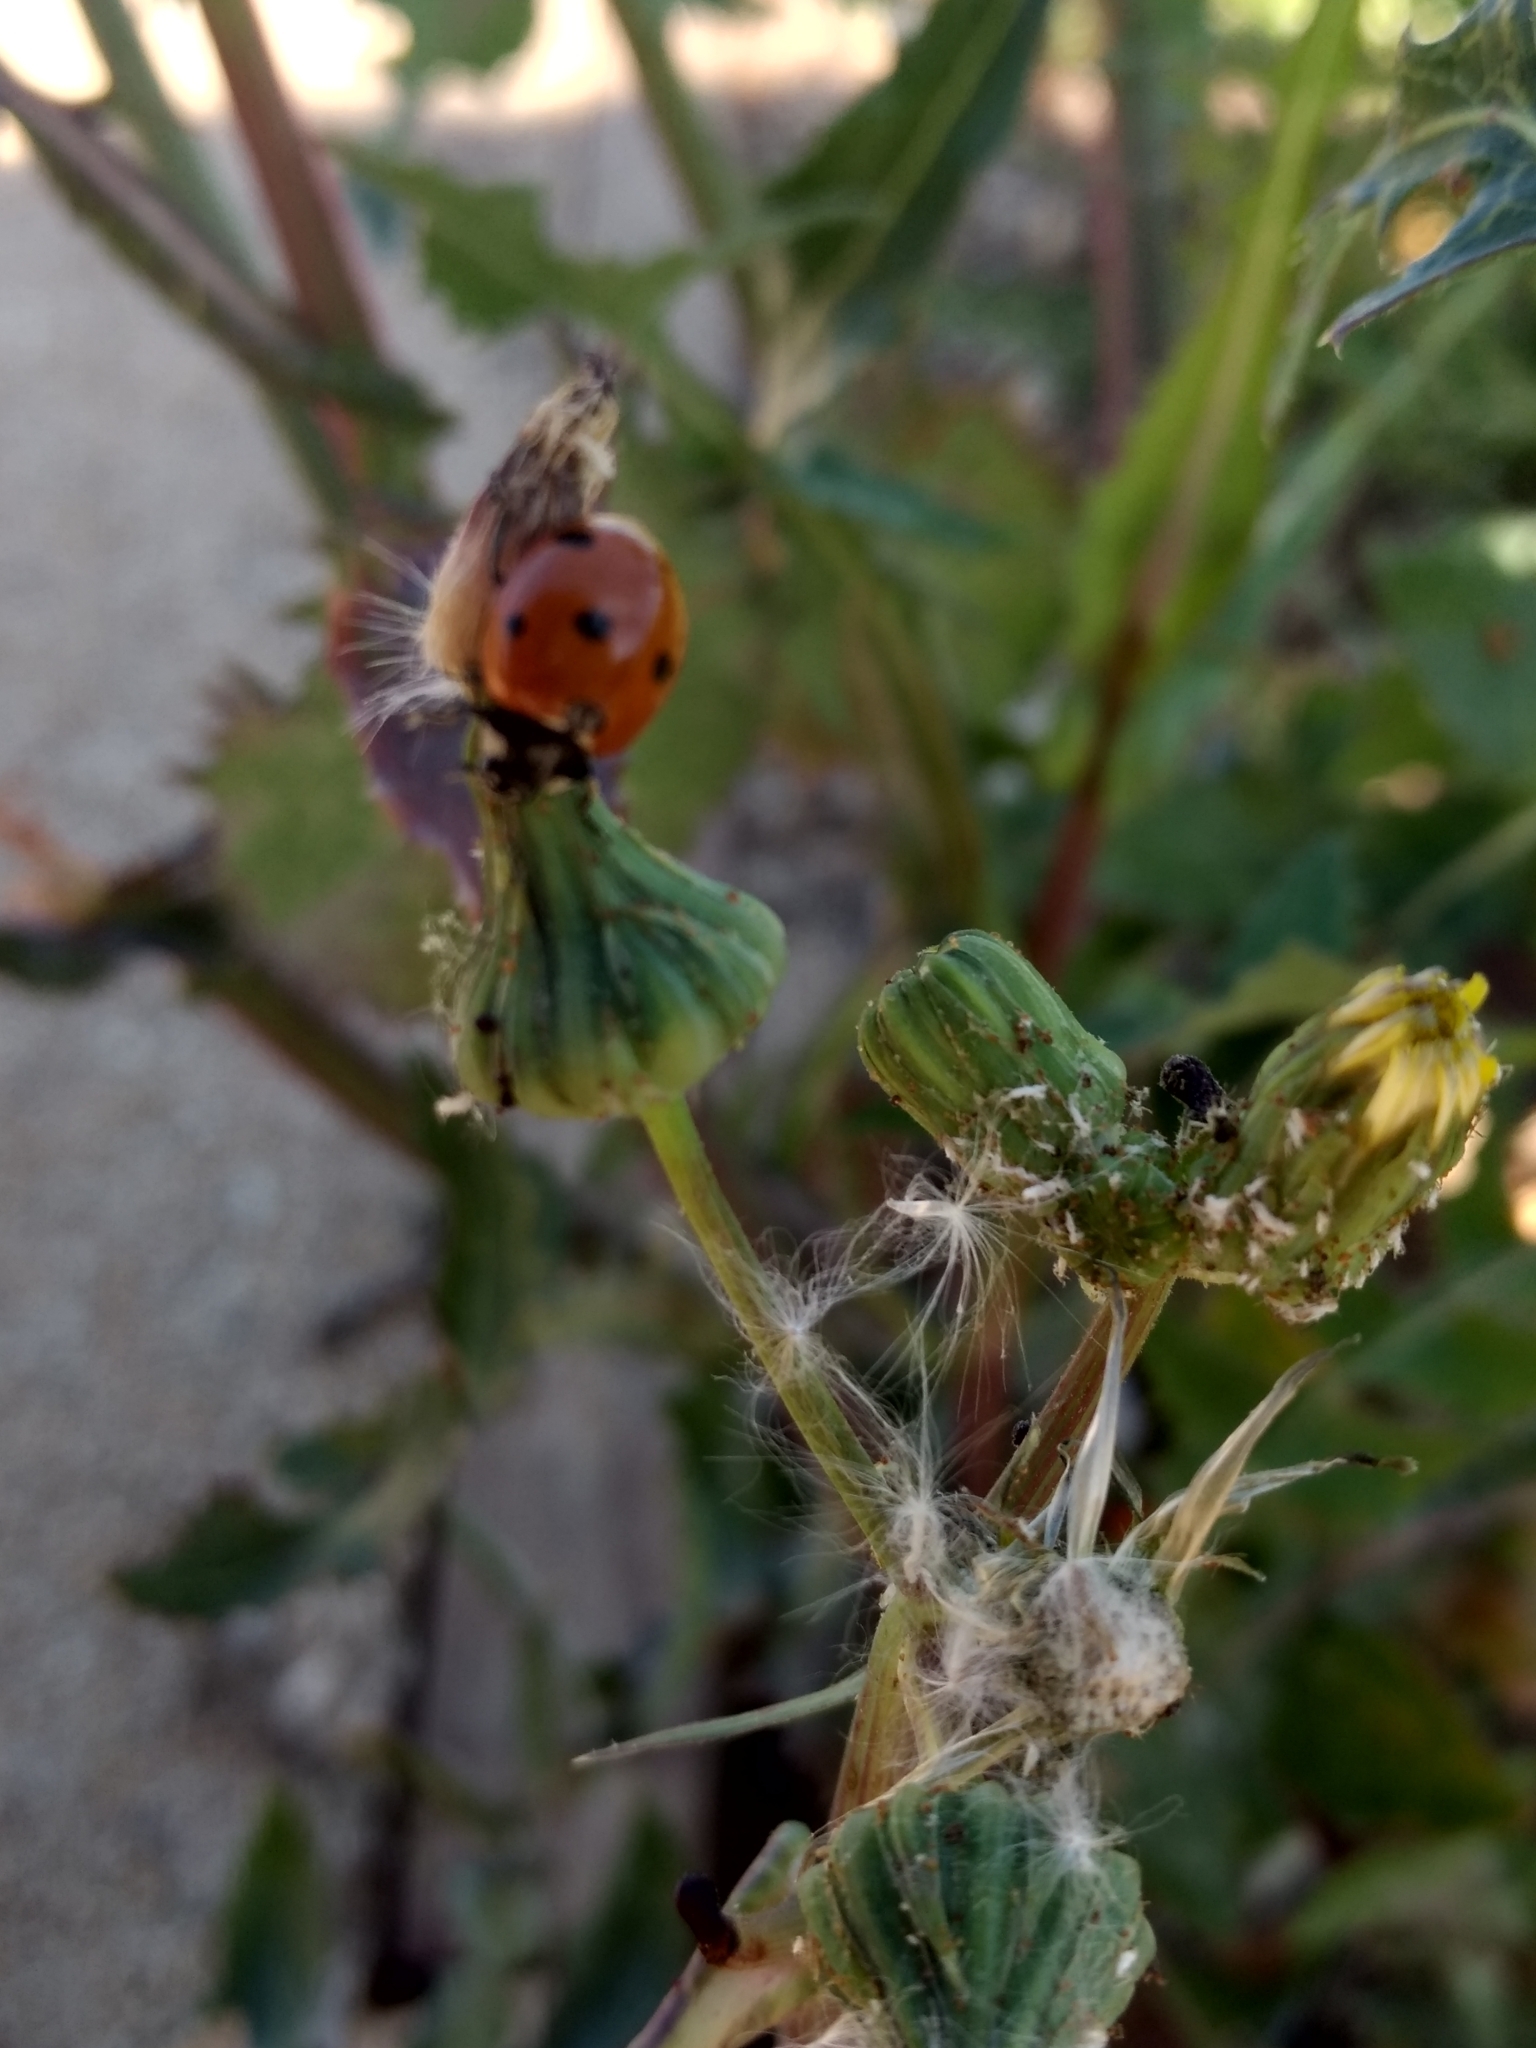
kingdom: Animalia
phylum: Arthropoda
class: Insecta
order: Coleoptera
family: Coccinellidae
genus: Coccinella
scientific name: Coccinella septempunctata
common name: Sevenspotted lady beetle
